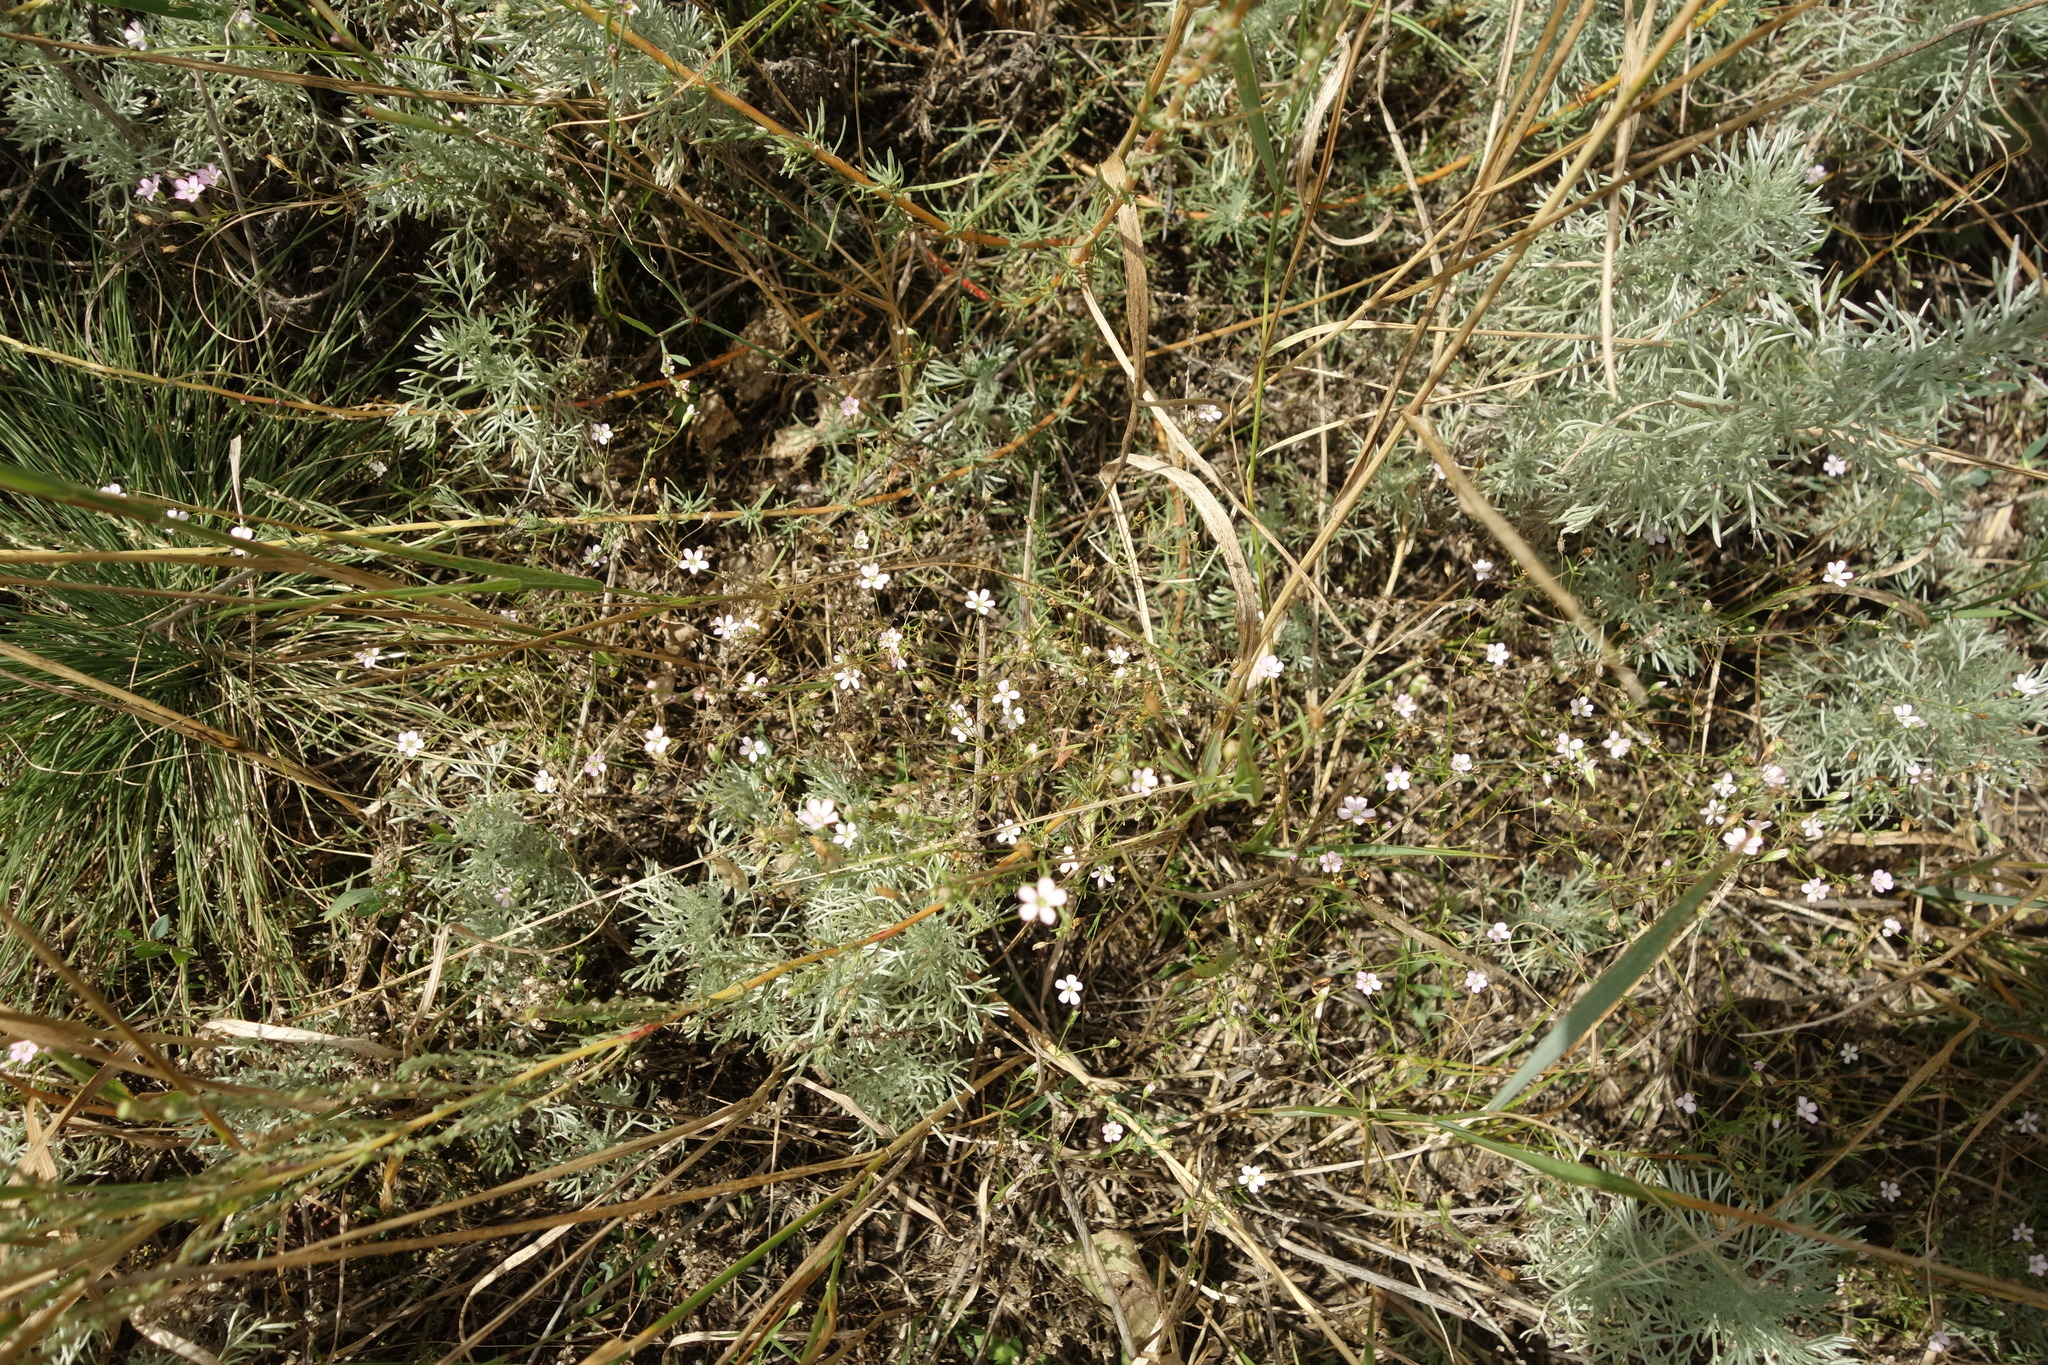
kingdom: Plantae
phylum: Tracheophyta
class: Magnoliopsida
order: Caryophyllales
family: Caryophyllaceae
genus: Psammophiliella
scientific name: Psammophiliella muralis
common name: Cushion baby's-breath
